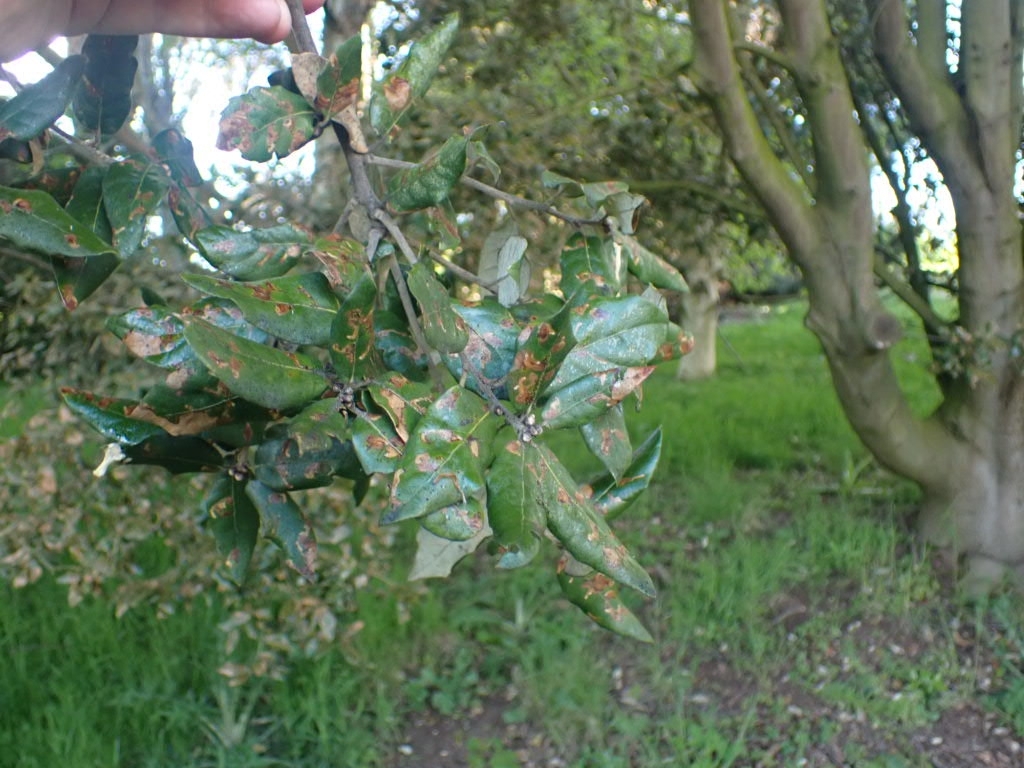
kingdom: Plantae
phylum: Tracheophyta
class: Magnoliopsida
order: Fagales
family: Fagaceae
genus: Quercus
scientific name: Quercus ilex
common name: Evergreen oak
